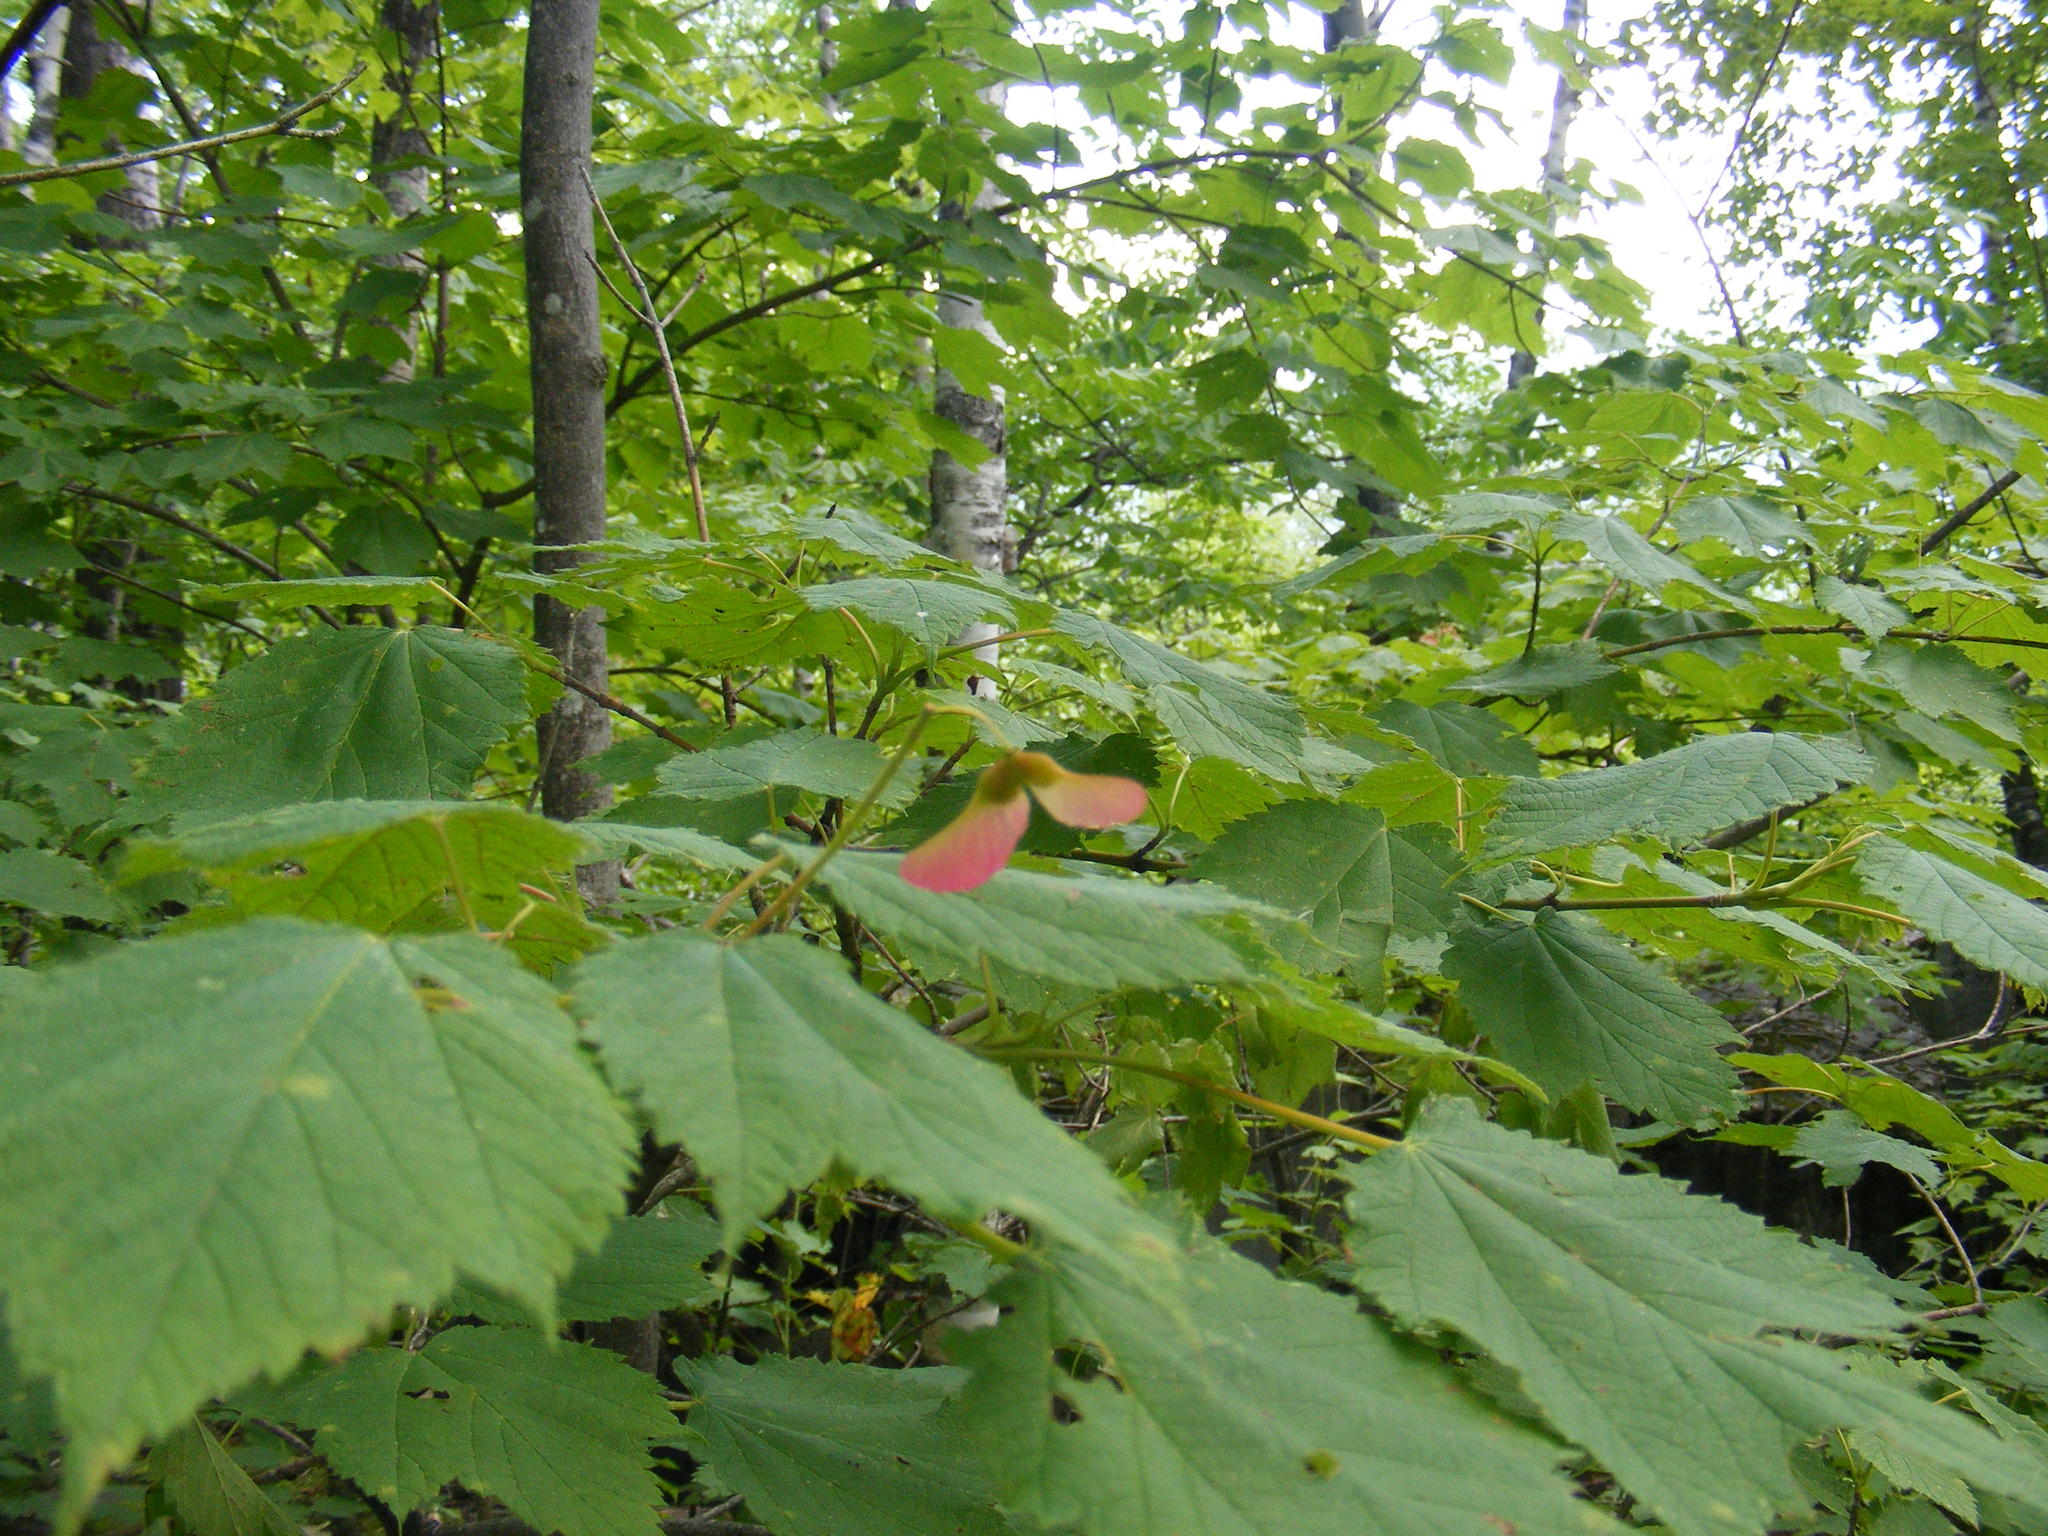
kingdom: Plantae
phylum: Tracheophyta
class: Magnoliopsida
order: Sapindales
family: Sapindaceae
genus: Acer
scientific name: Acer spicatum
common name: Mountain maple
